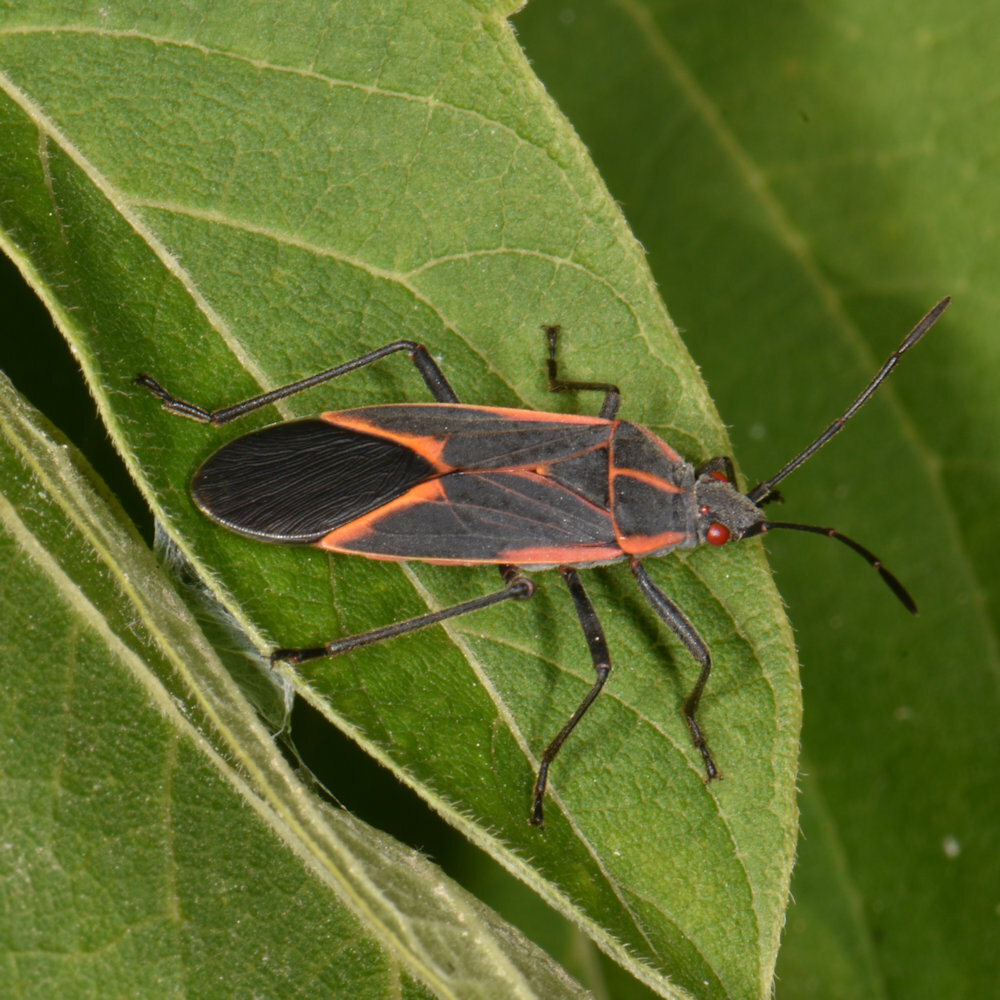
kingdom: Animalia
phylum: Arthropoda
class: Insecta
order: Hemiptera
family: Rhopalidae
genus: Boisea
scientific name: Boisea trivittata
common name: Boxelder bug
